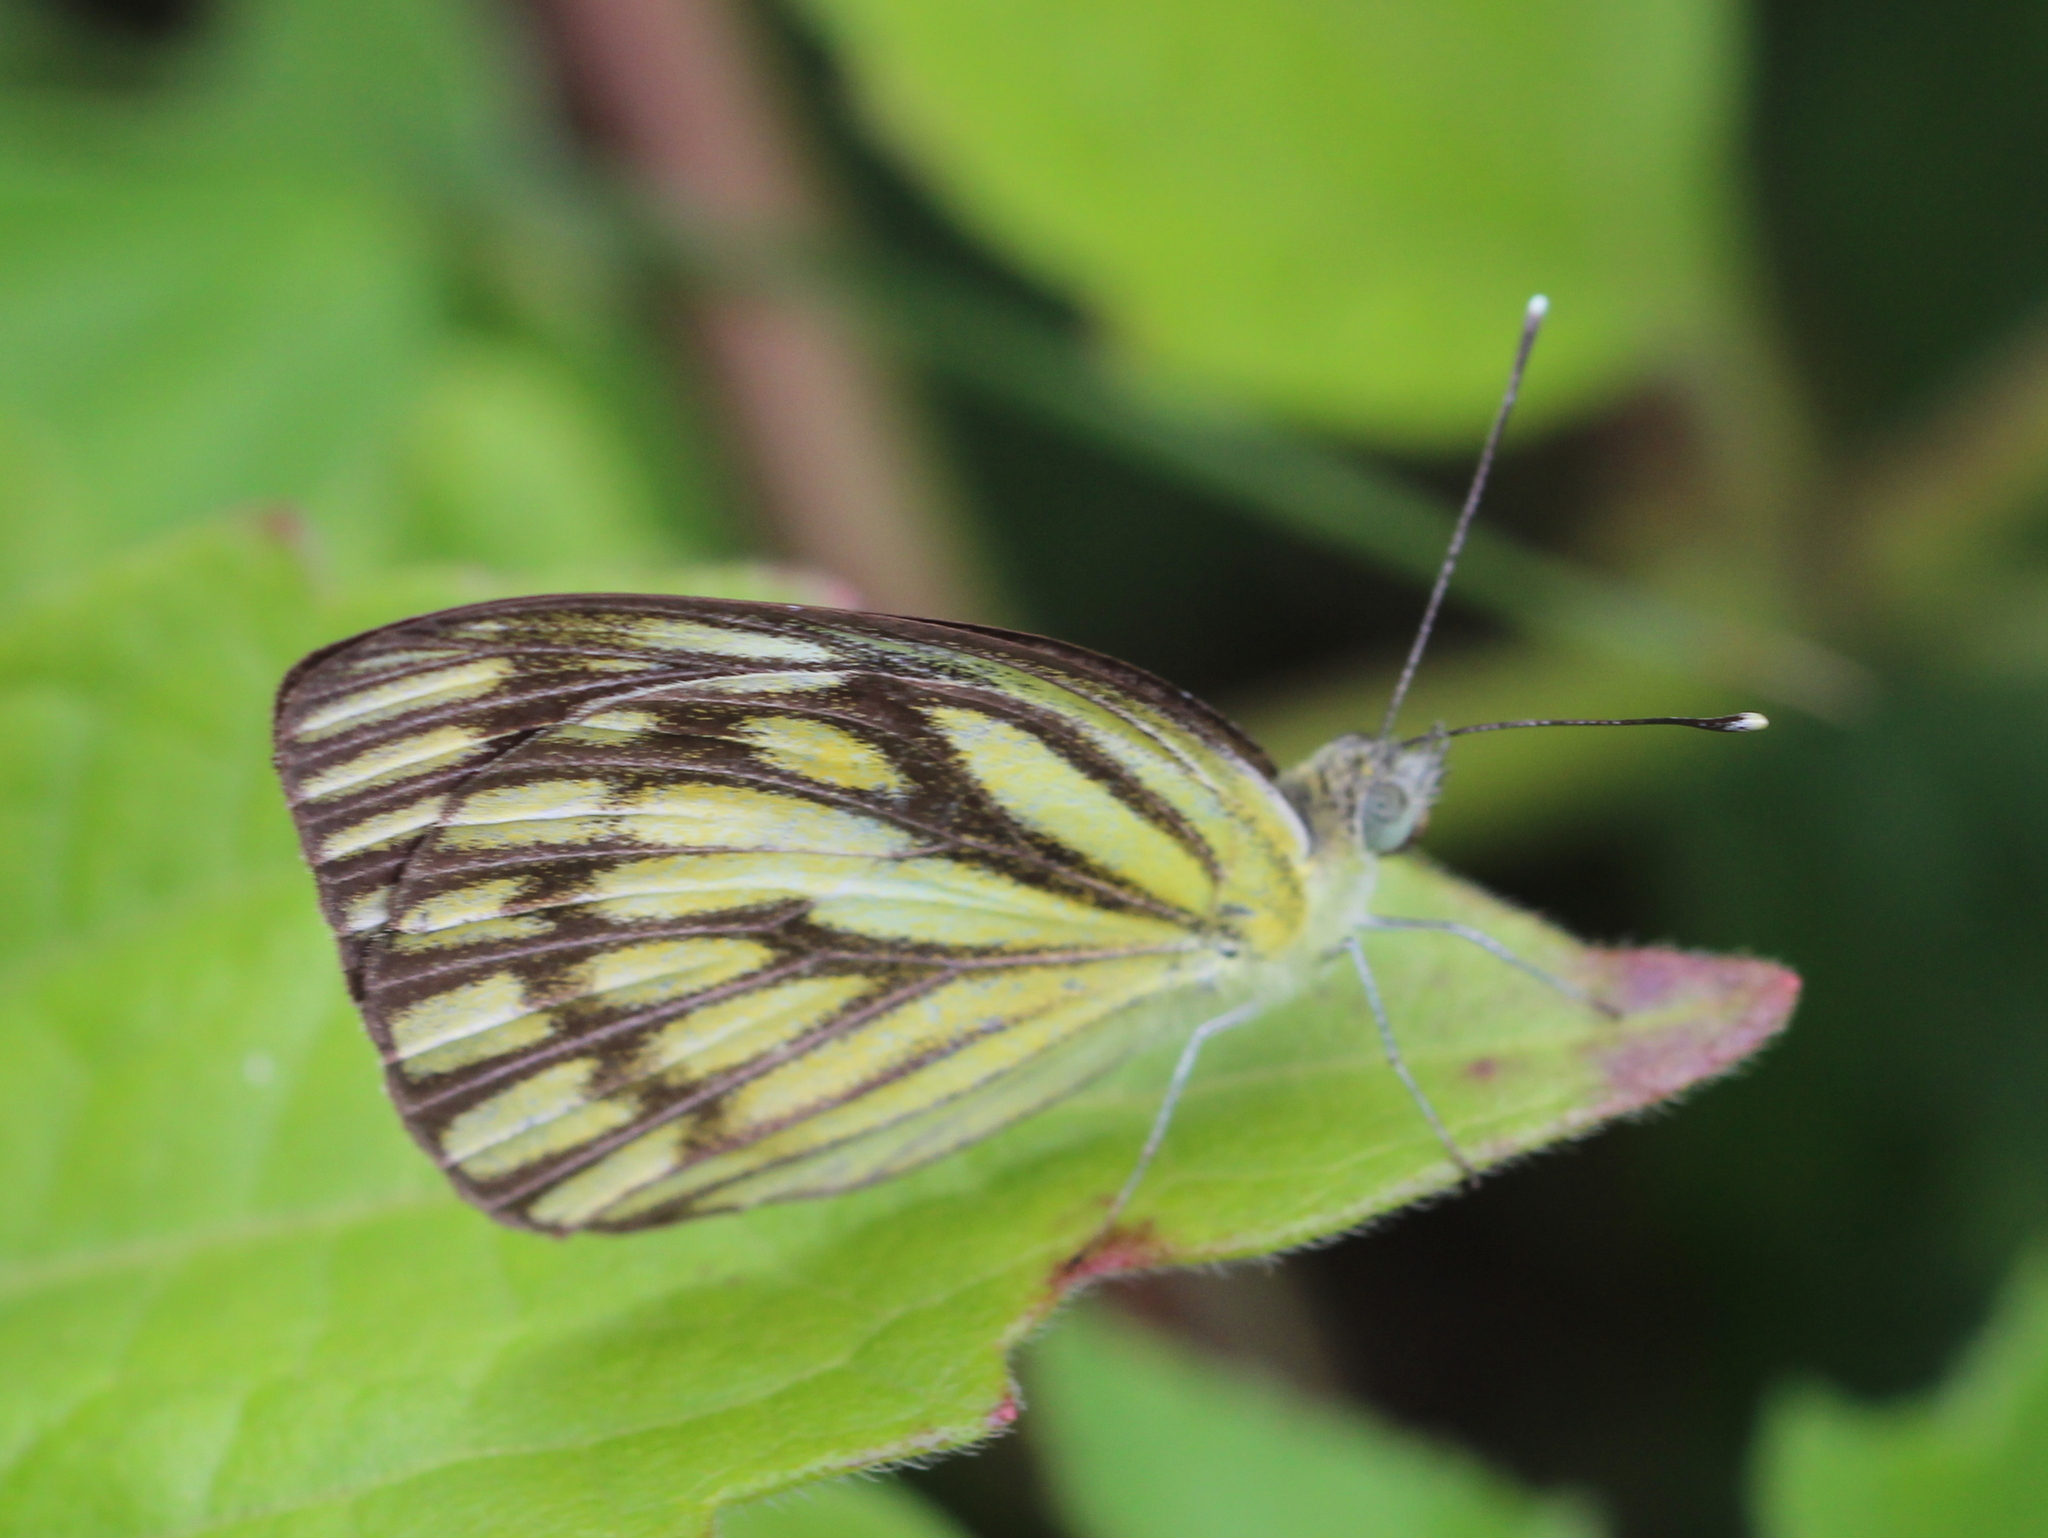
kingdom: Animalia
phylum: Arthropoda
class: Insecta
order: Lepidoptera
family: Pieridae
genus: Cepora
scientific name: Cepora nerissa
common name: Common gull
